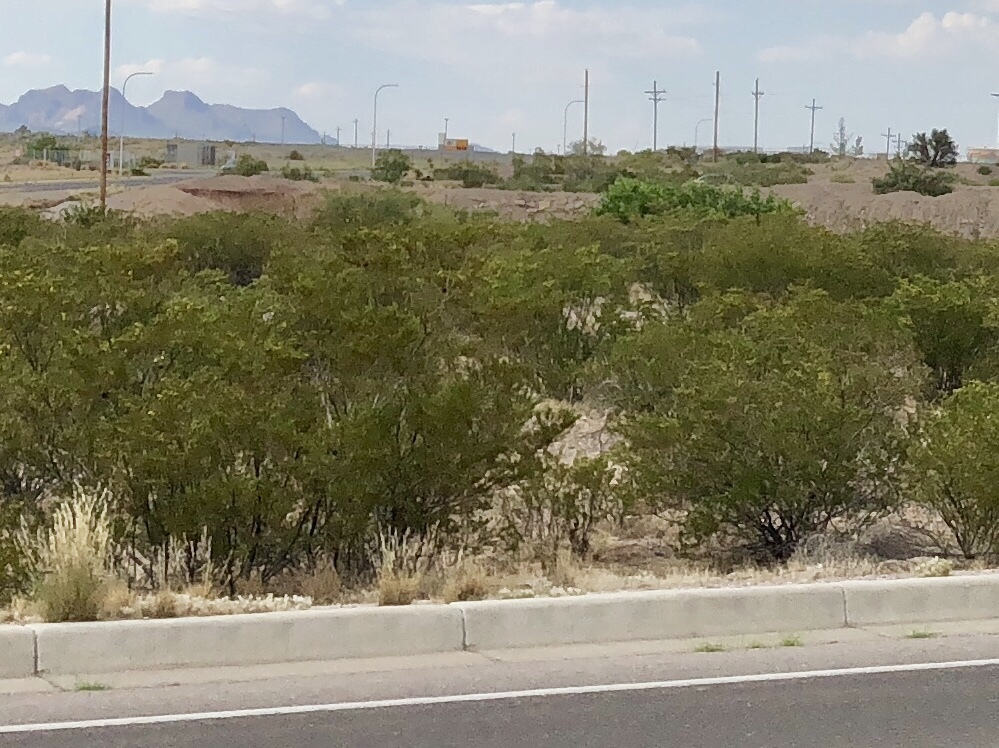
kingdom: Plantae
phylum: Tracheophyta
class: Magnoliopsida
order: Zygophyllales
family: Zygophyllaceae
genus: Larrea
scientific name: Larrea tridentata
